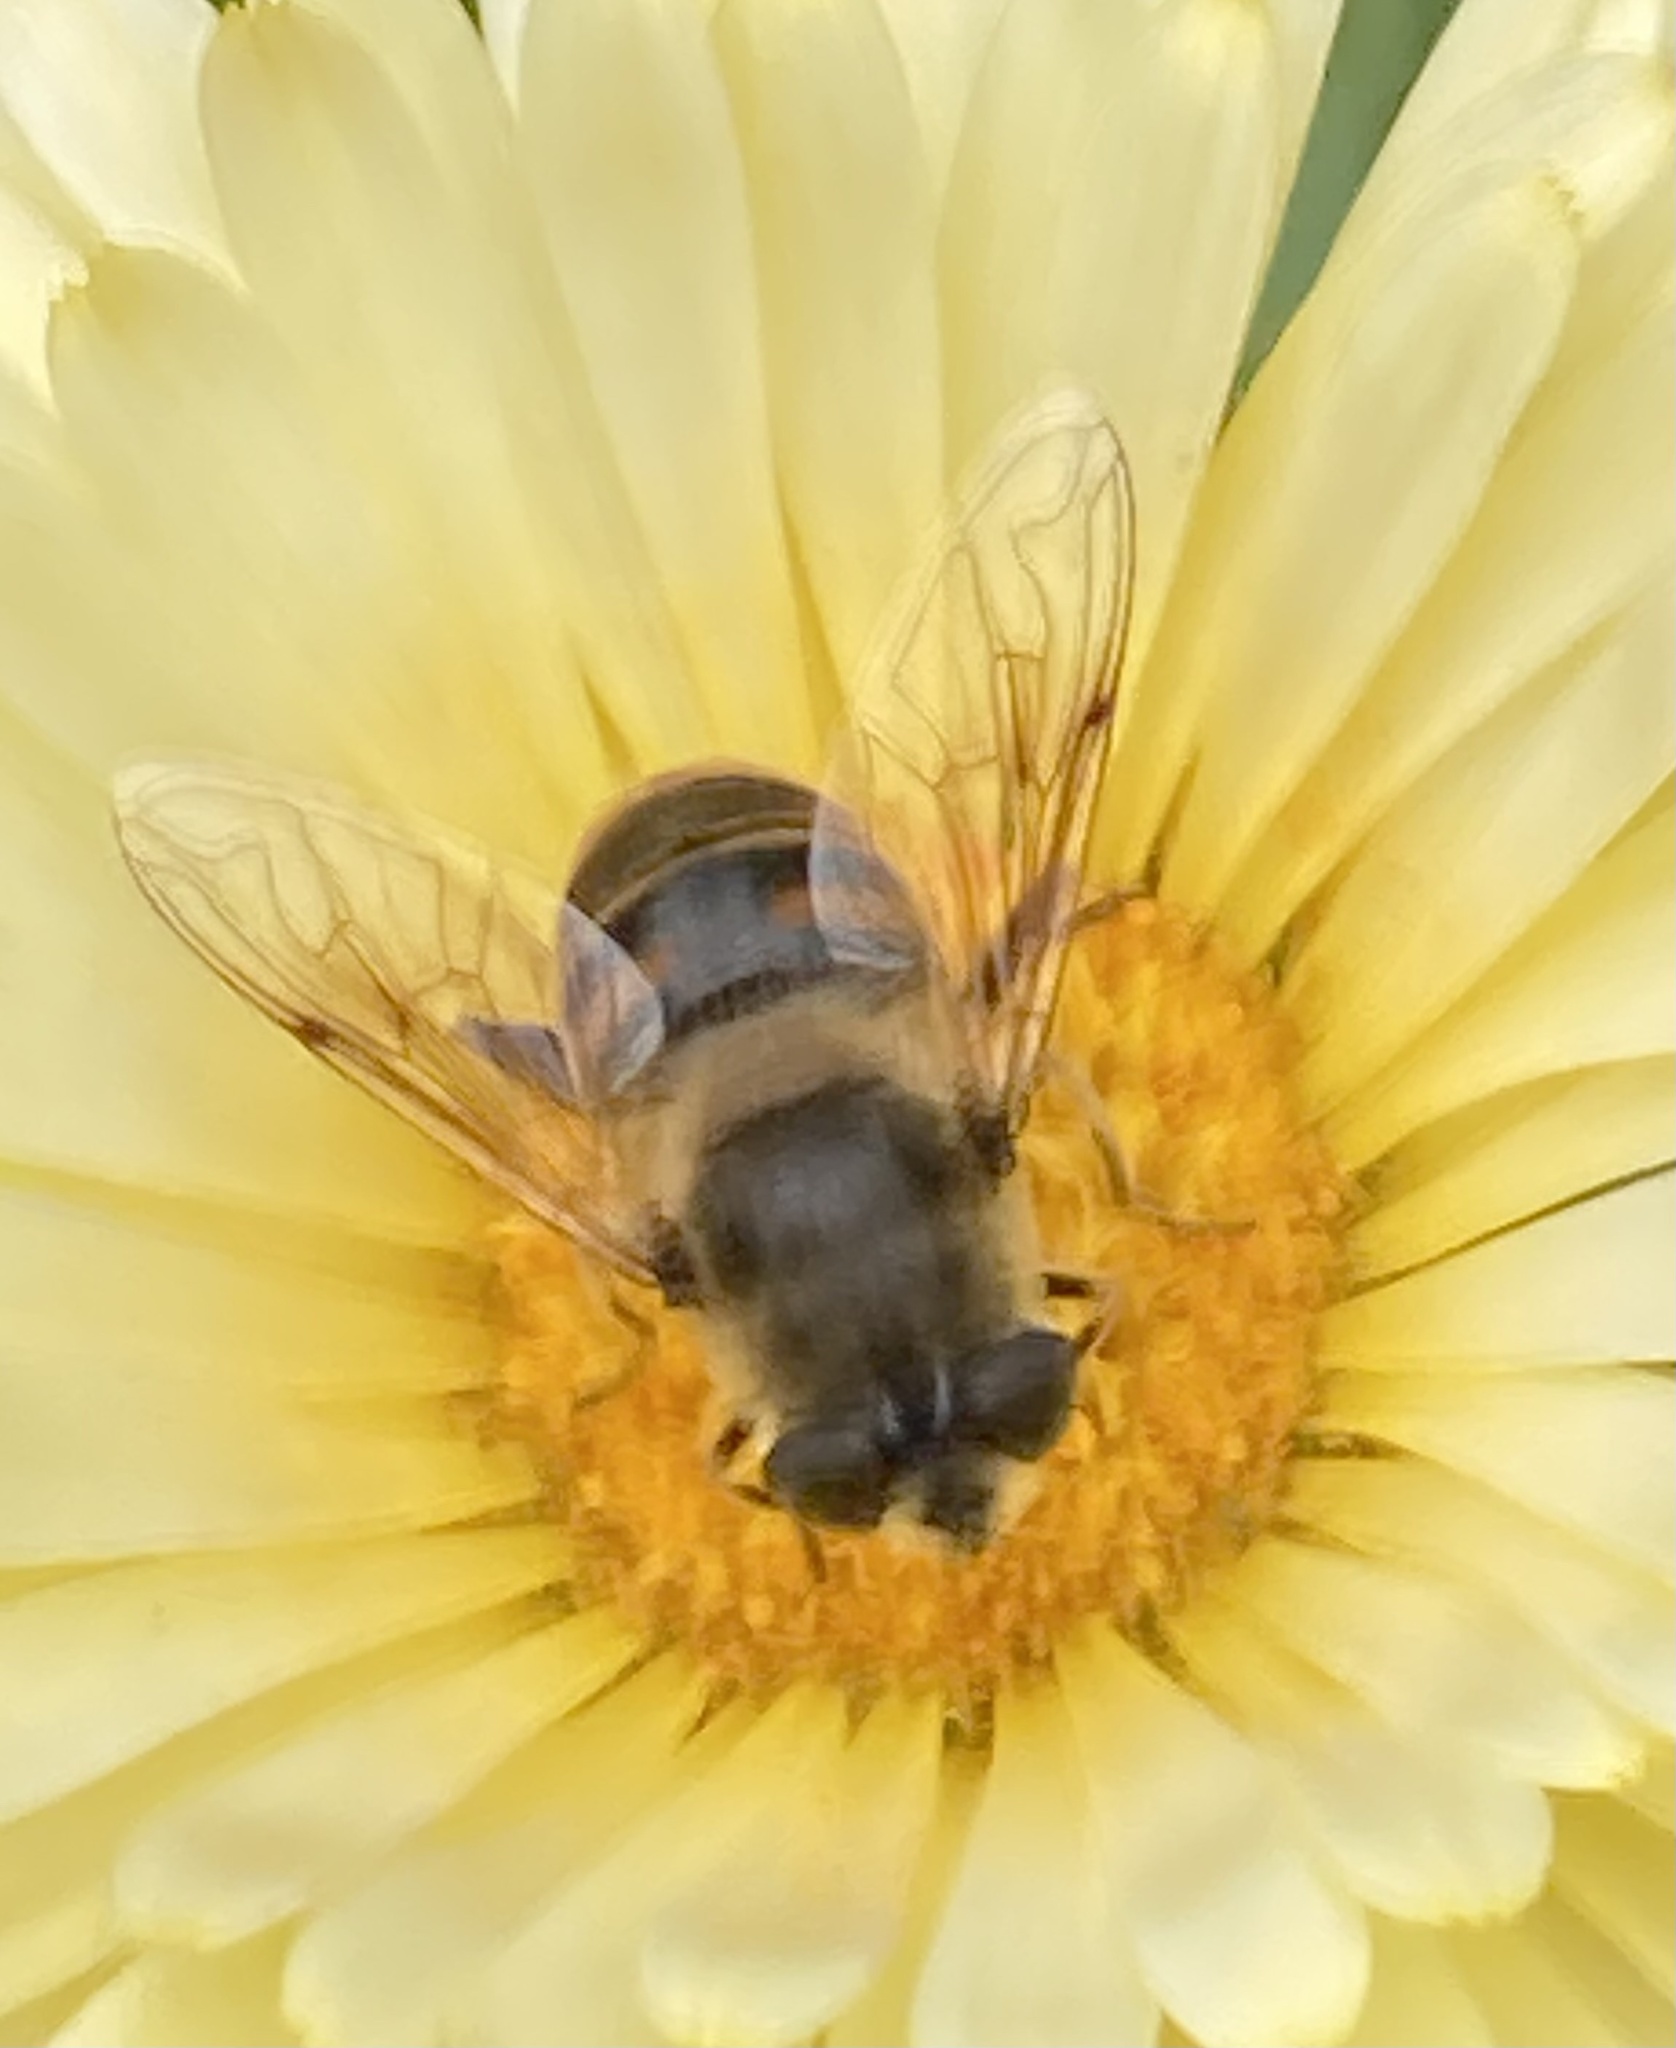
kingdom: Animalia
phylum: Arthropoda
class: Insecta
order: Diptera
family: Syrphidae
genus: Eristalis
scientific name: Eristalis tenax
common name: Drone fly
